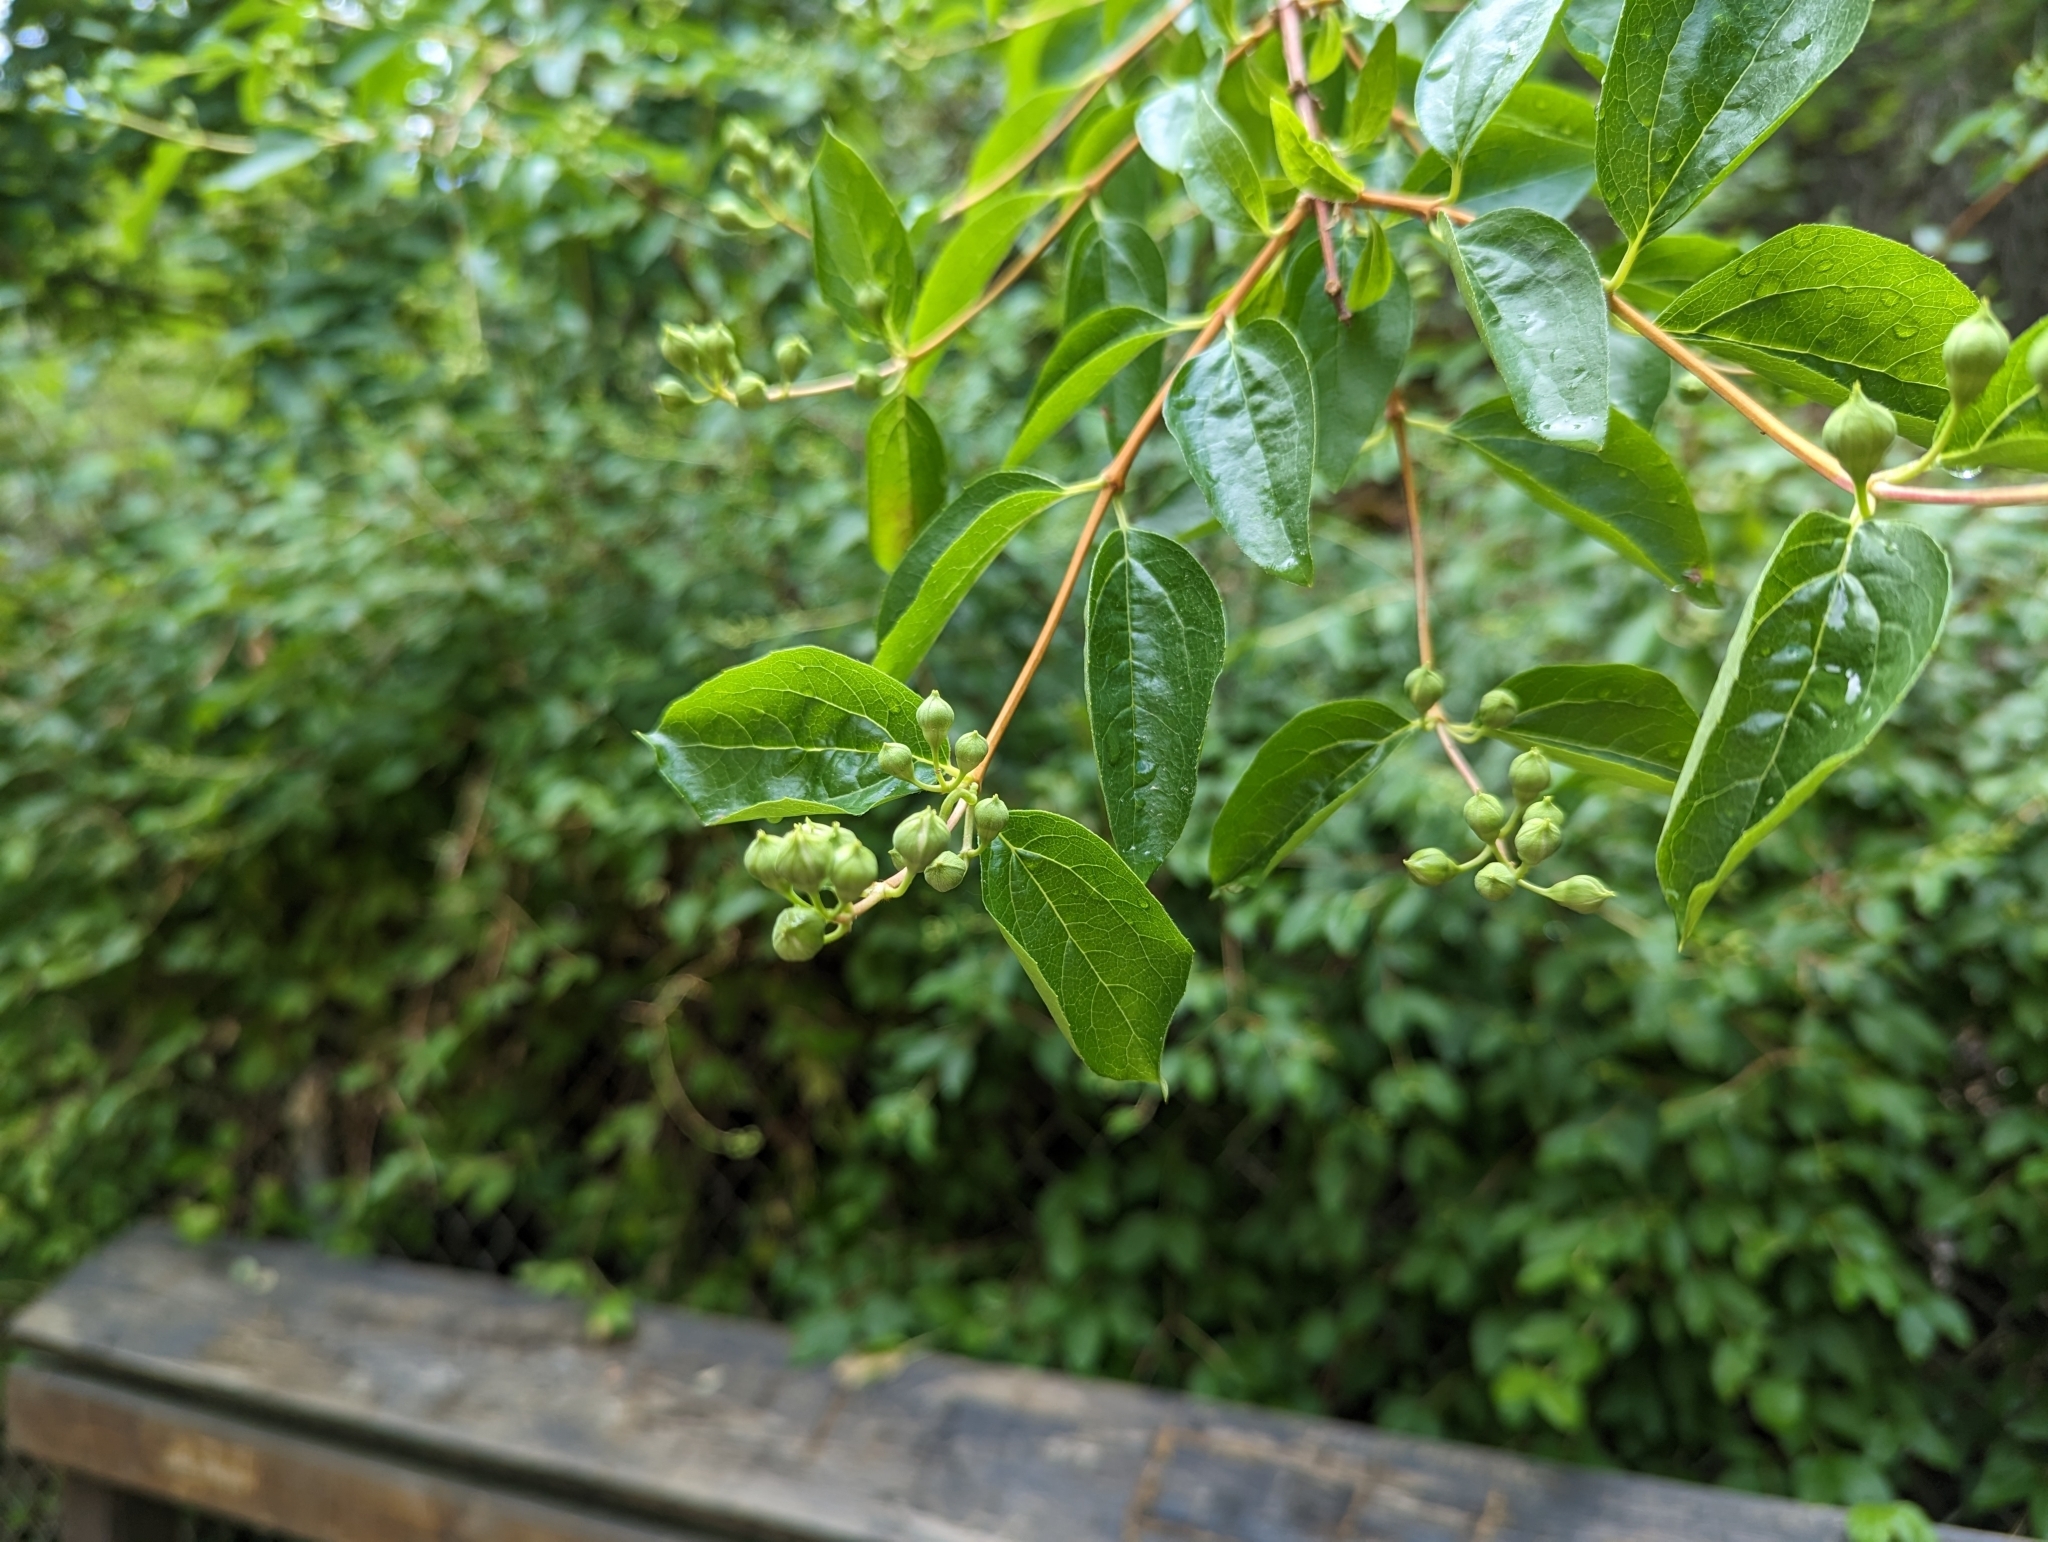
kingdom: Plantae
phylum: Tracheophyta
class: Magnoliopsida
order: Cornales
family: Hydrangeaceae
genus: Philadelphus
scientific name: Philadelphus lewisii
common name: Lewis's mock orange
